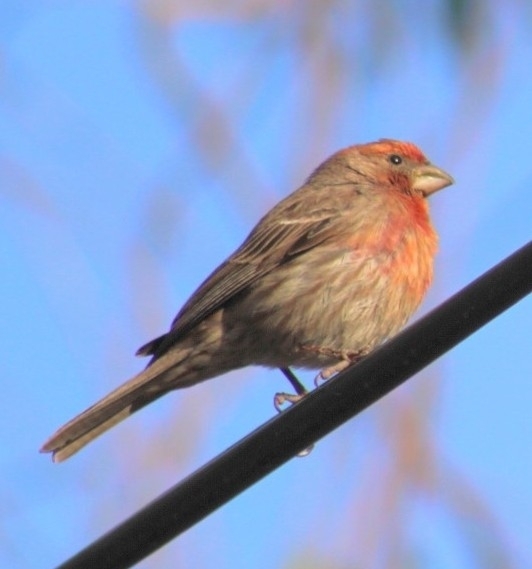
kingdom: Animalia
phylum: Chordata
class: Aves
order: Passeriformes
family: Fringillidae
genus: Haemorhous
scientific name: Haemorhous mexicanus
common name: House finch
